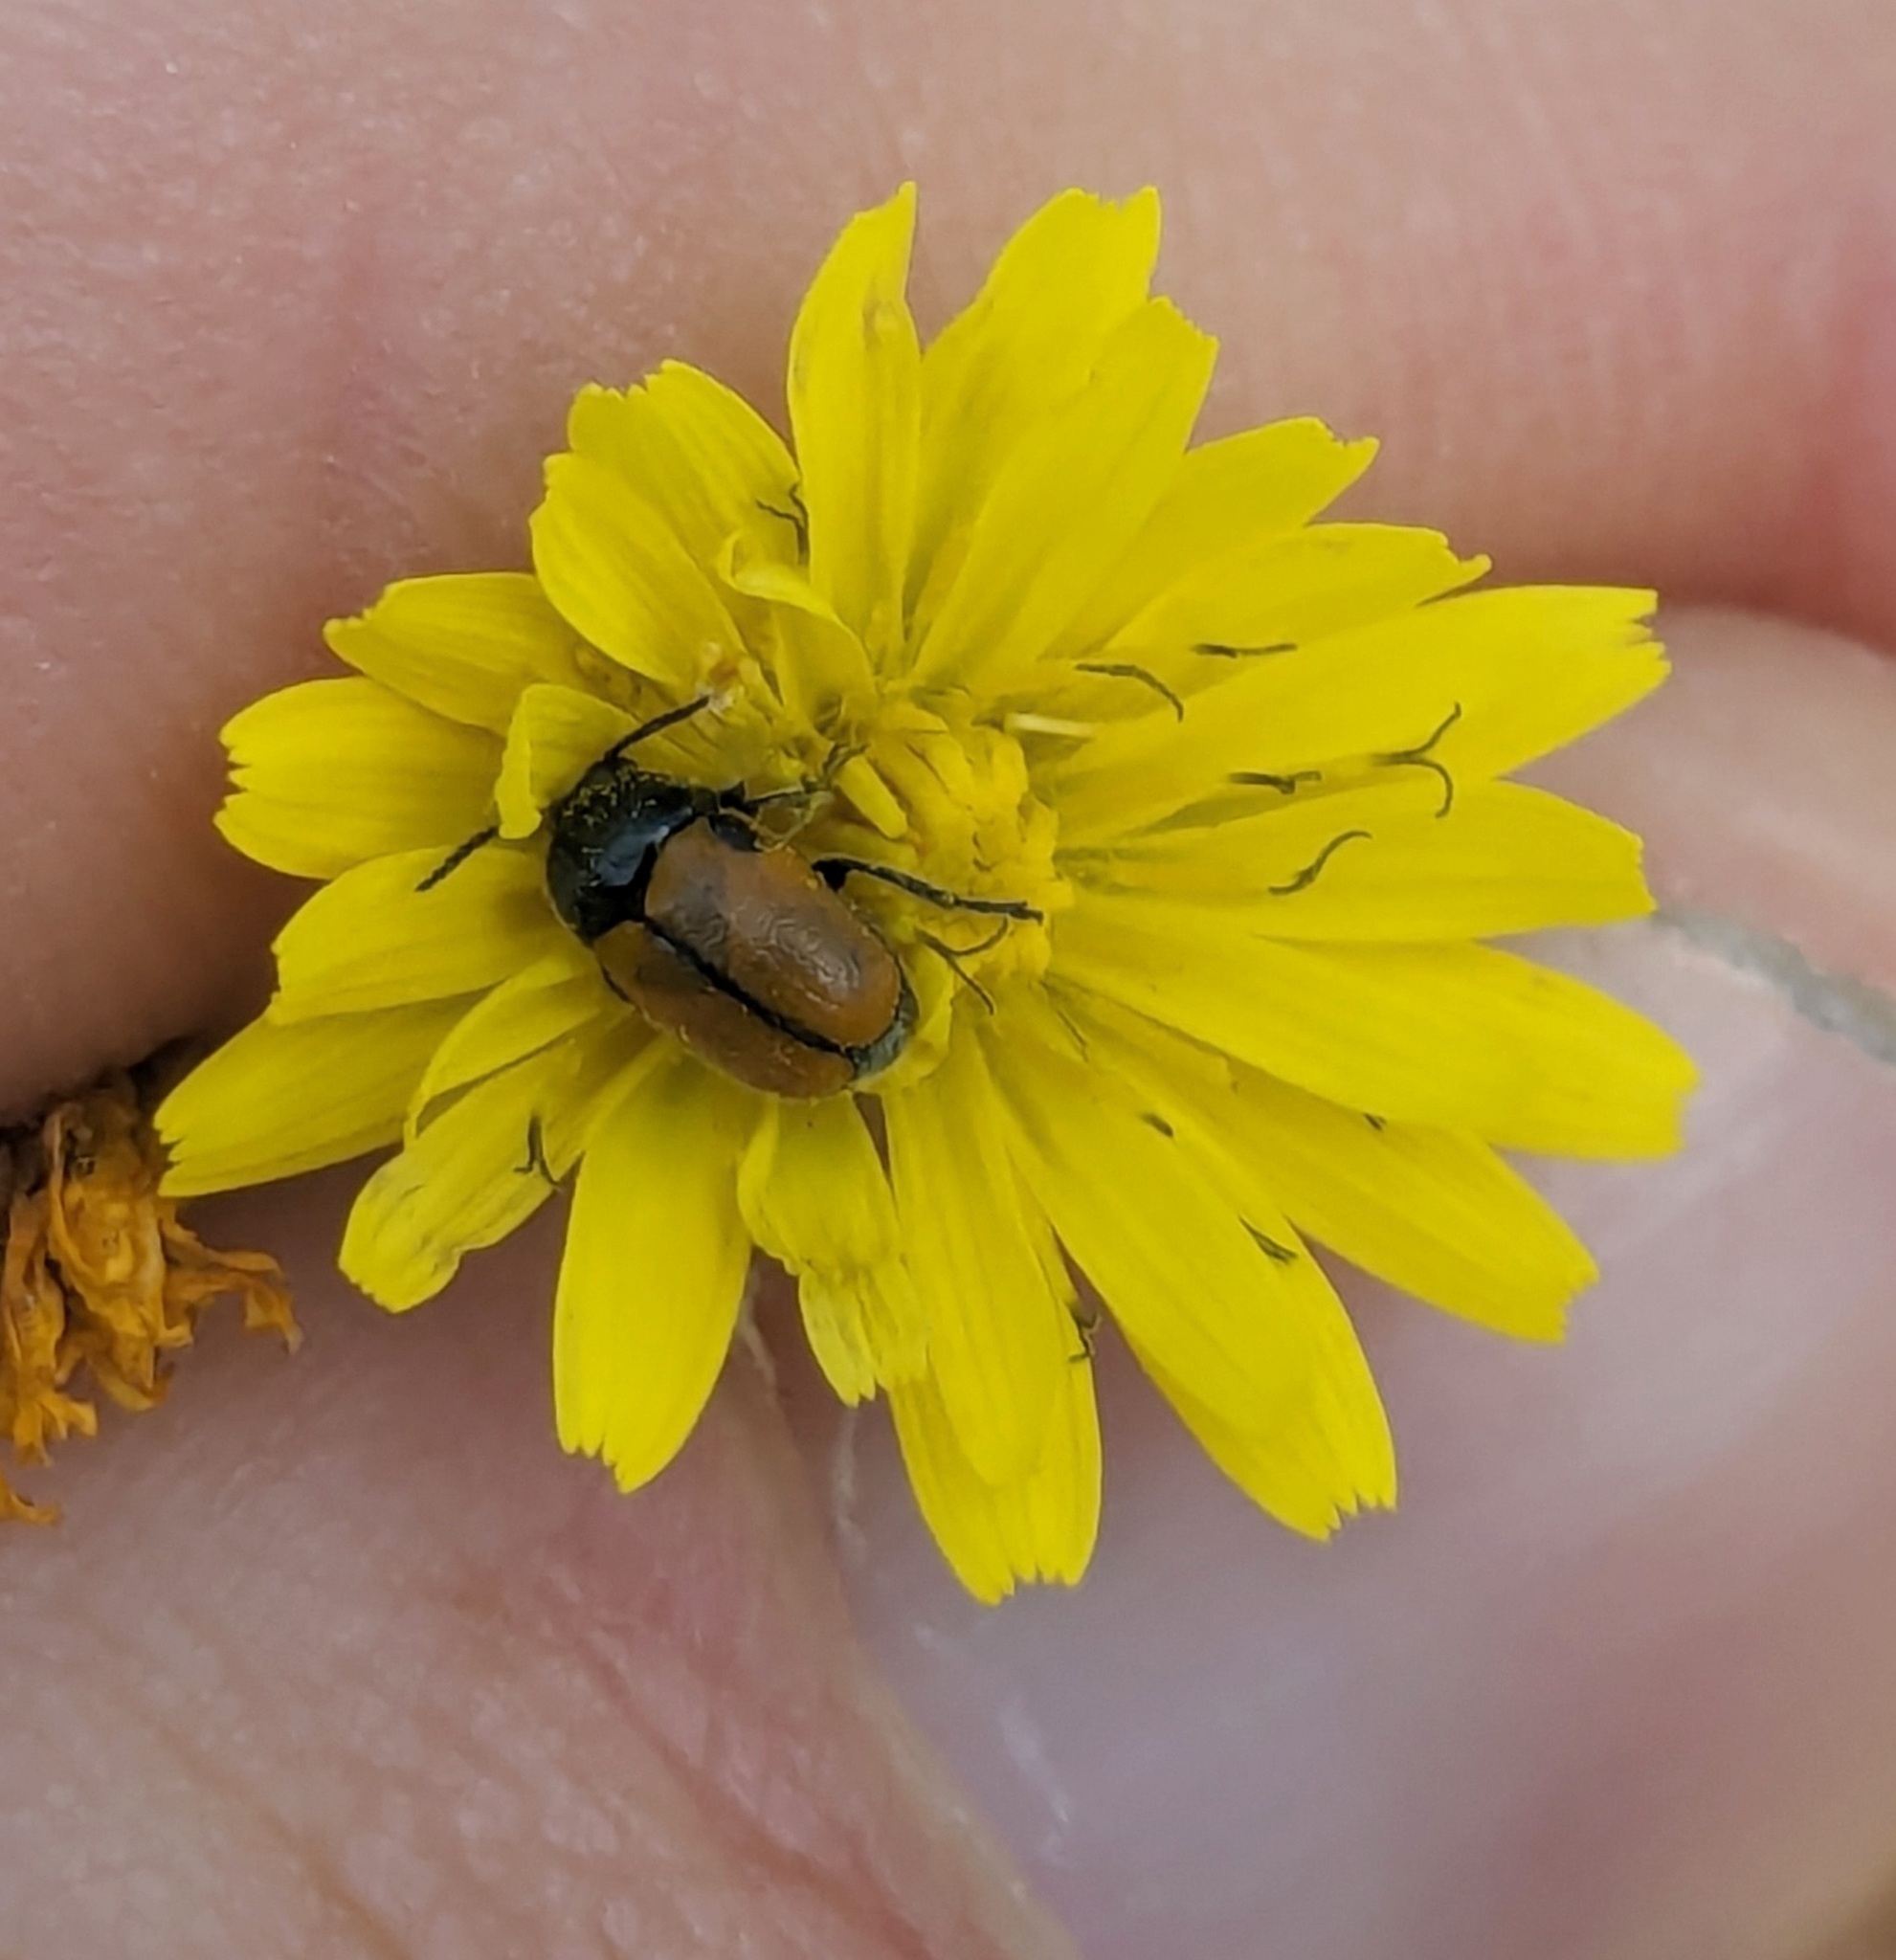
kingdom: Animalia
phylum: Arthropoda
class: Insecta
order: Coleoptera
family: Chrysomelidae
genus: Cryptocephalus
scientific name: Cryptocephalus rugicollis
